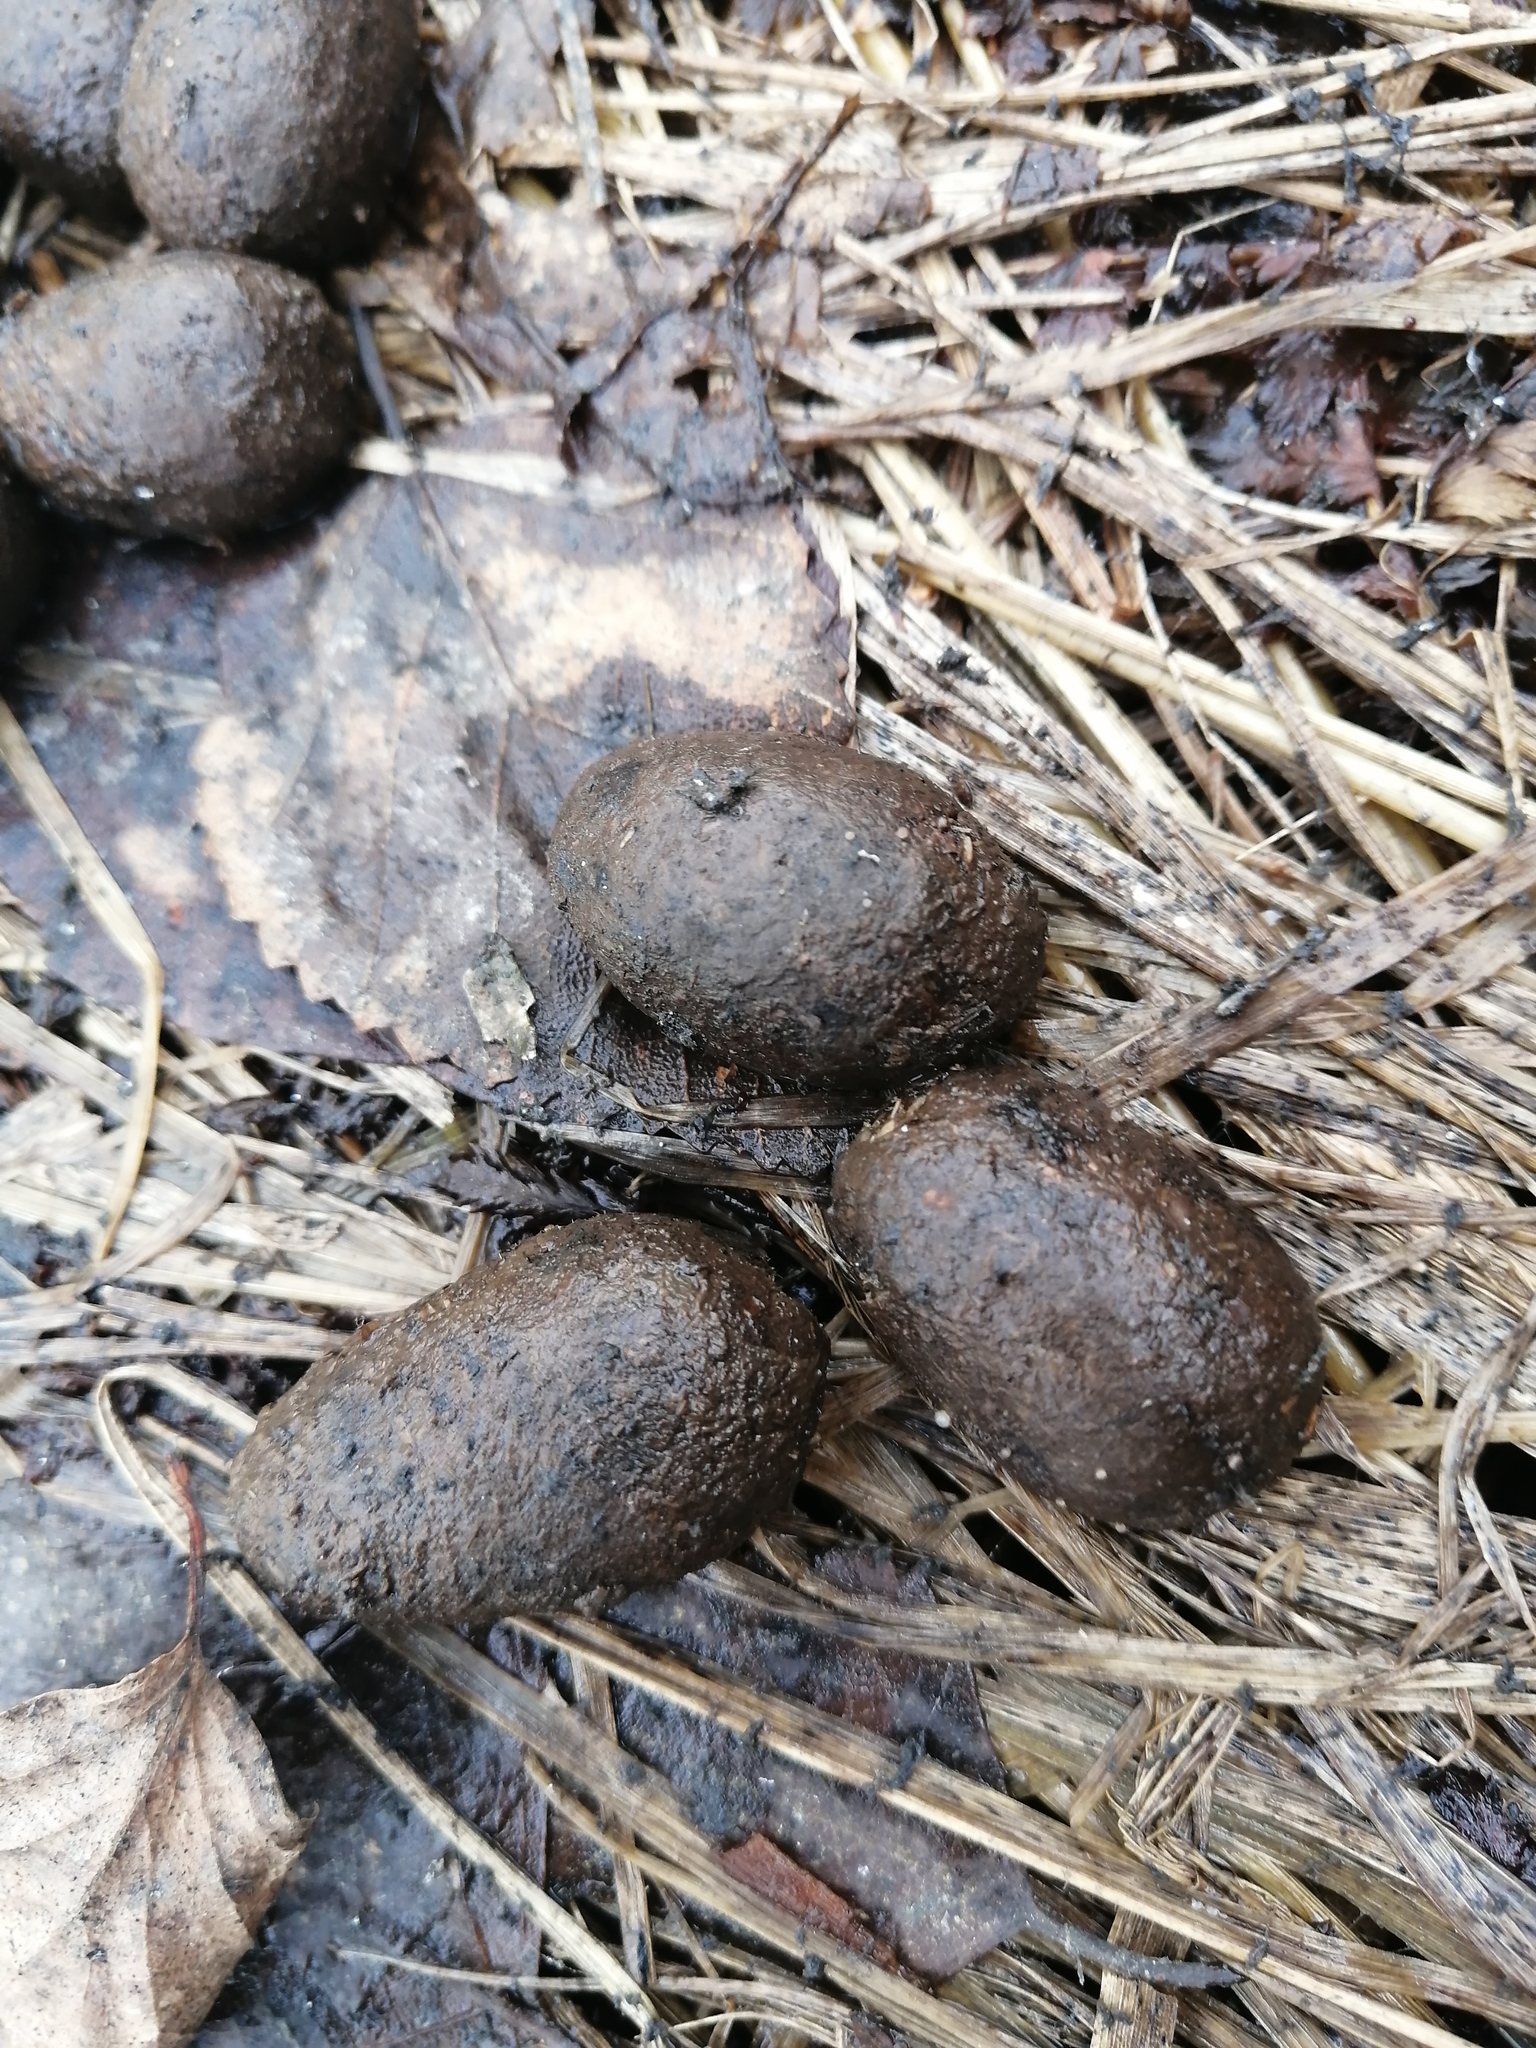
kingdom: Animalia
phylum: Chordata
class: Mammalia
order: Artiodactyla
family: Cervidae
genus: Alces
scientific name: Alces alces
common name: Moose
